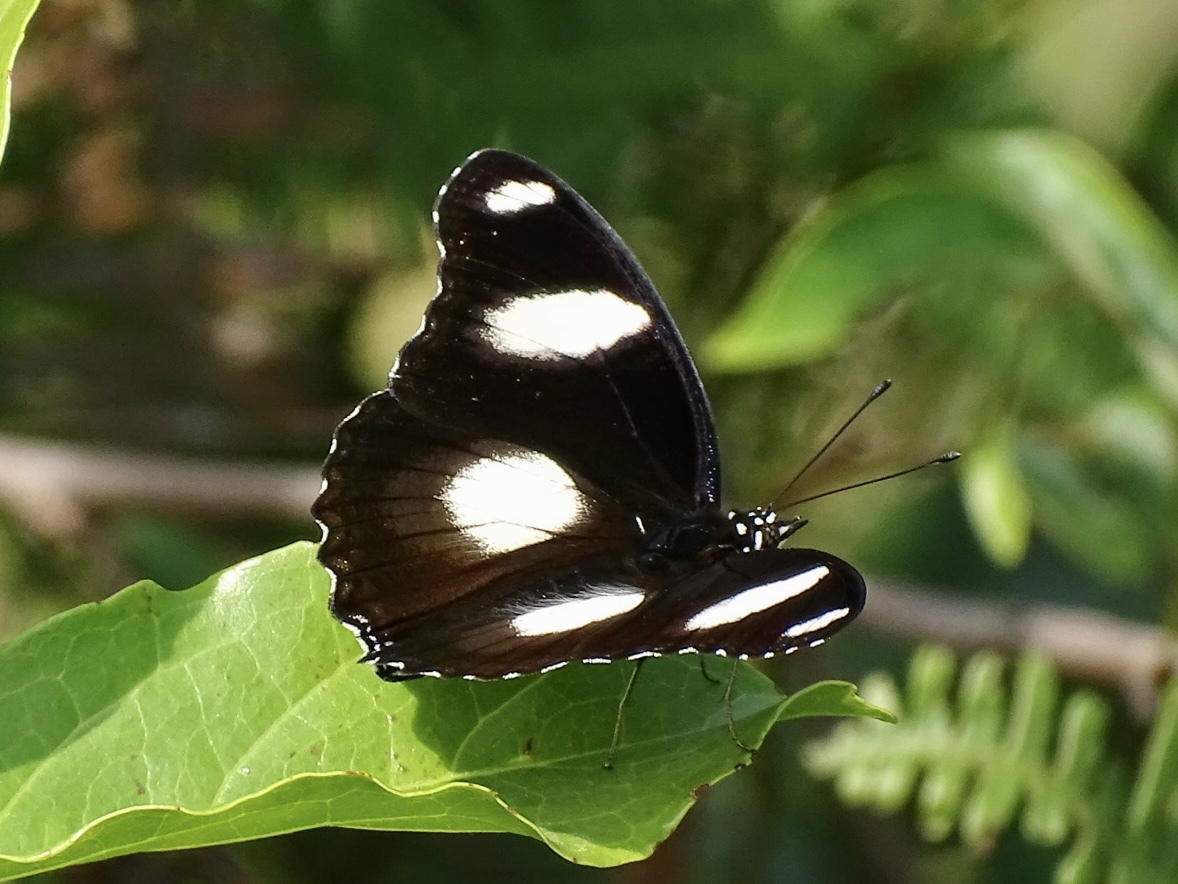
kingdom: Animalia
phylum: Arthropoda
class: Insecta
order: Lepidoptera
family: Nymphalidae
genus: Hypolimnas
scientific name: Hypolimnas misippus
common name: False plain tiger
